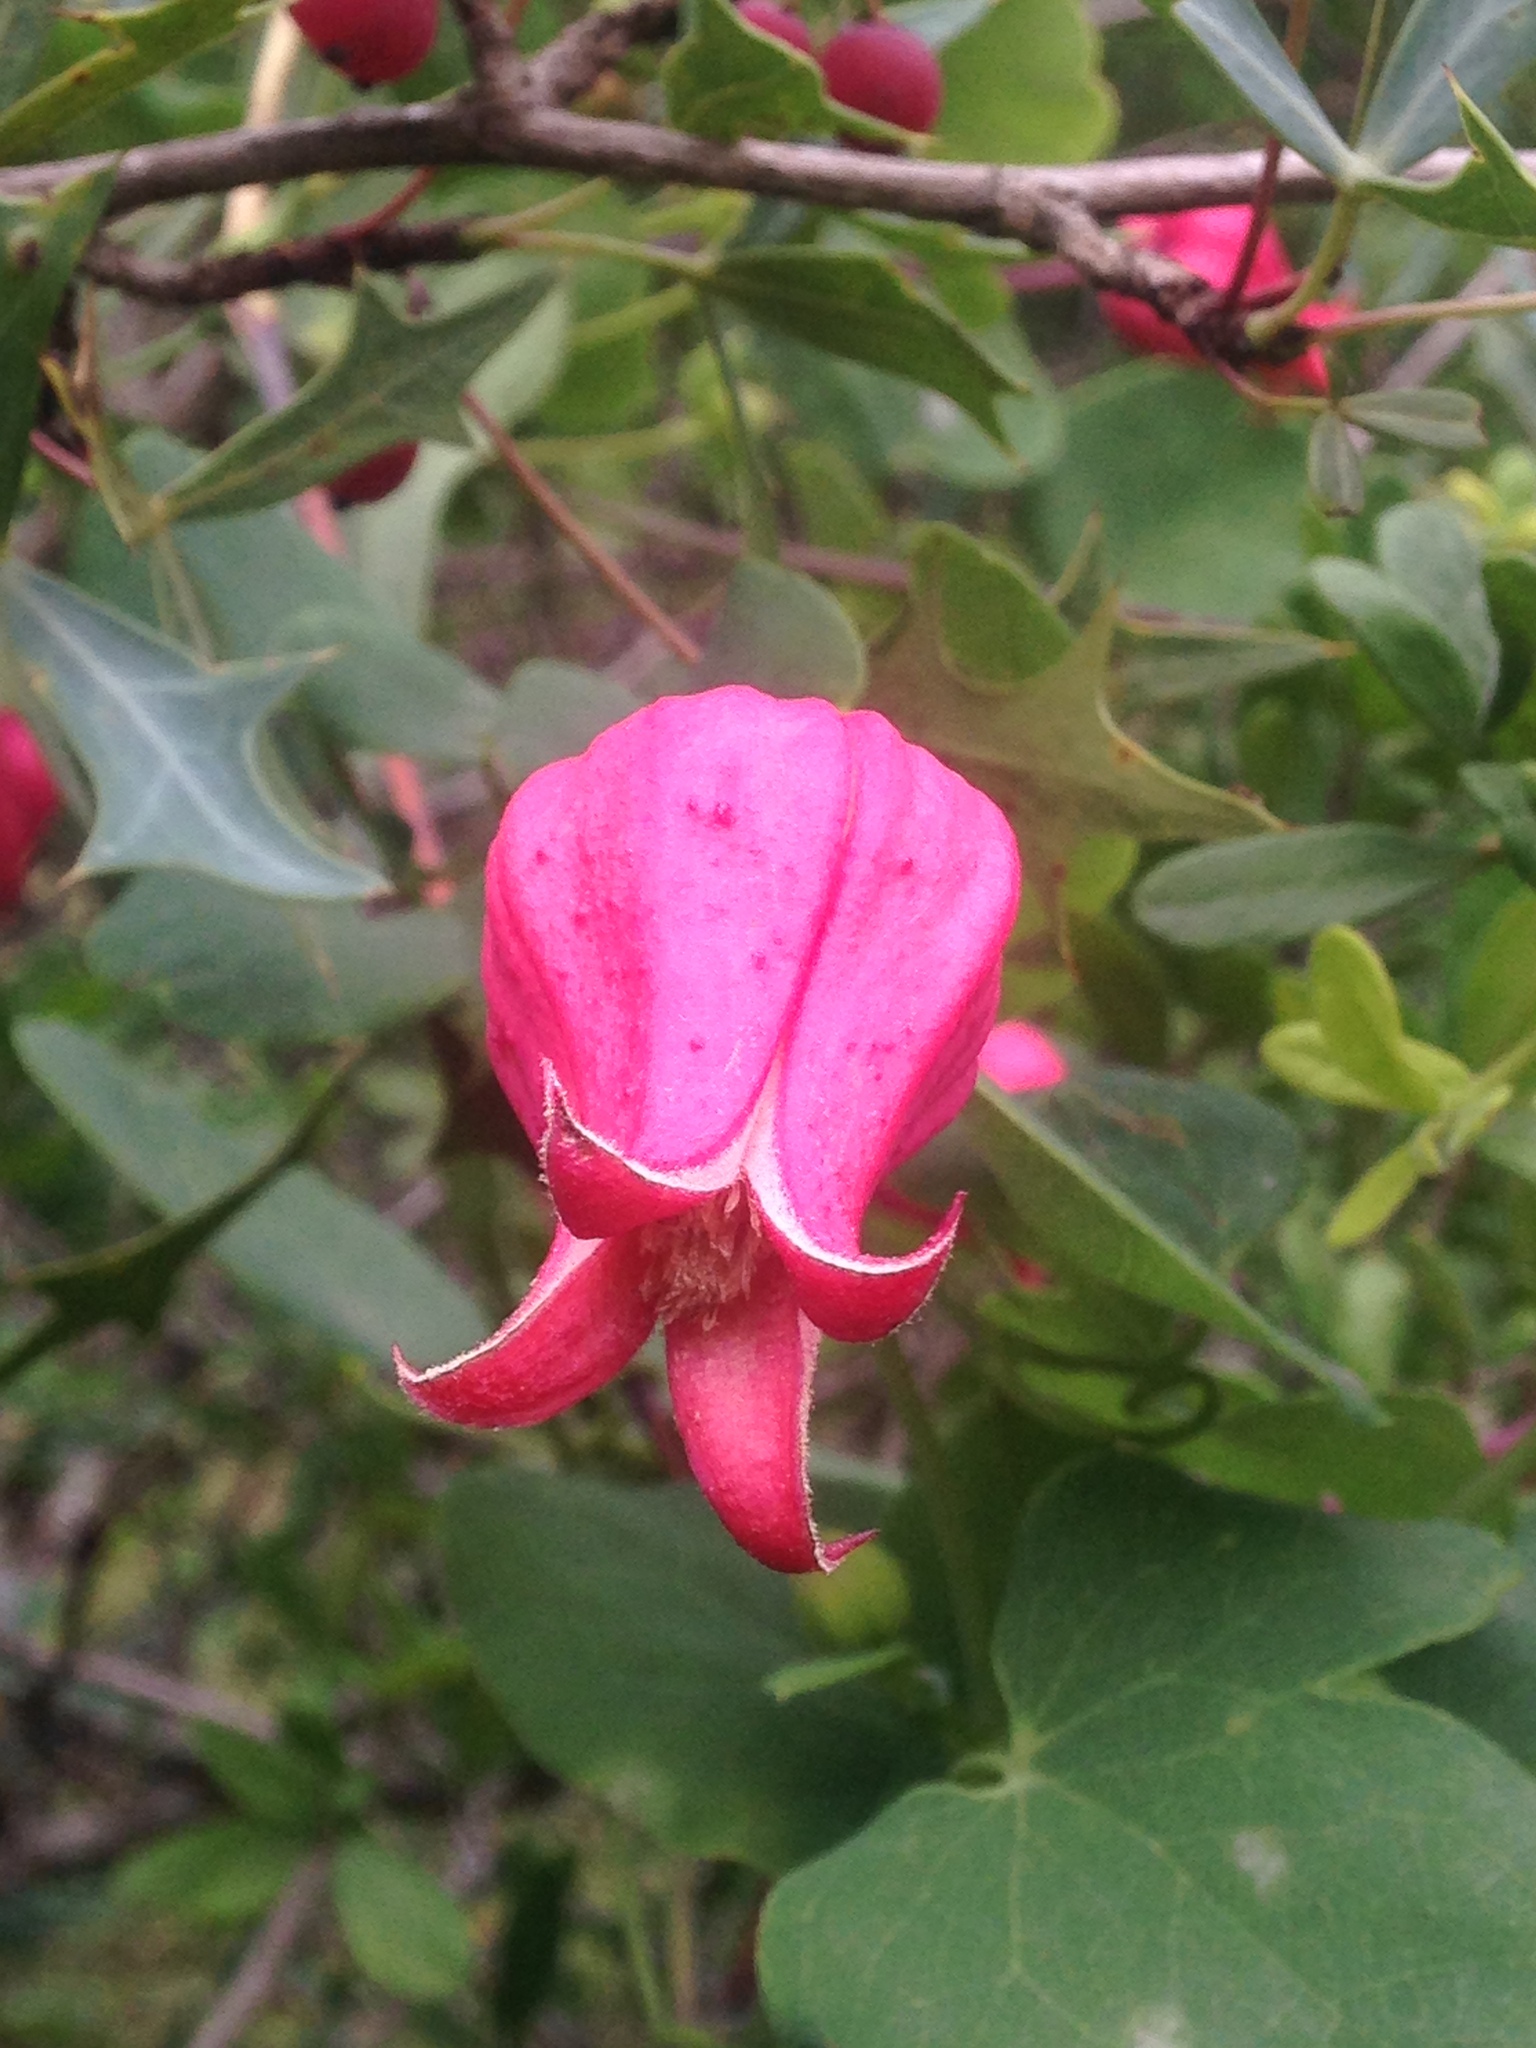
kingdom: Plantae
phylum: Tracheophyta
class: Magnoliopsida
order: Ranunculales
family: Ranunculaceae
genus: Clematis
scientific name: Clematis texensis
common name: Crimson clematis
